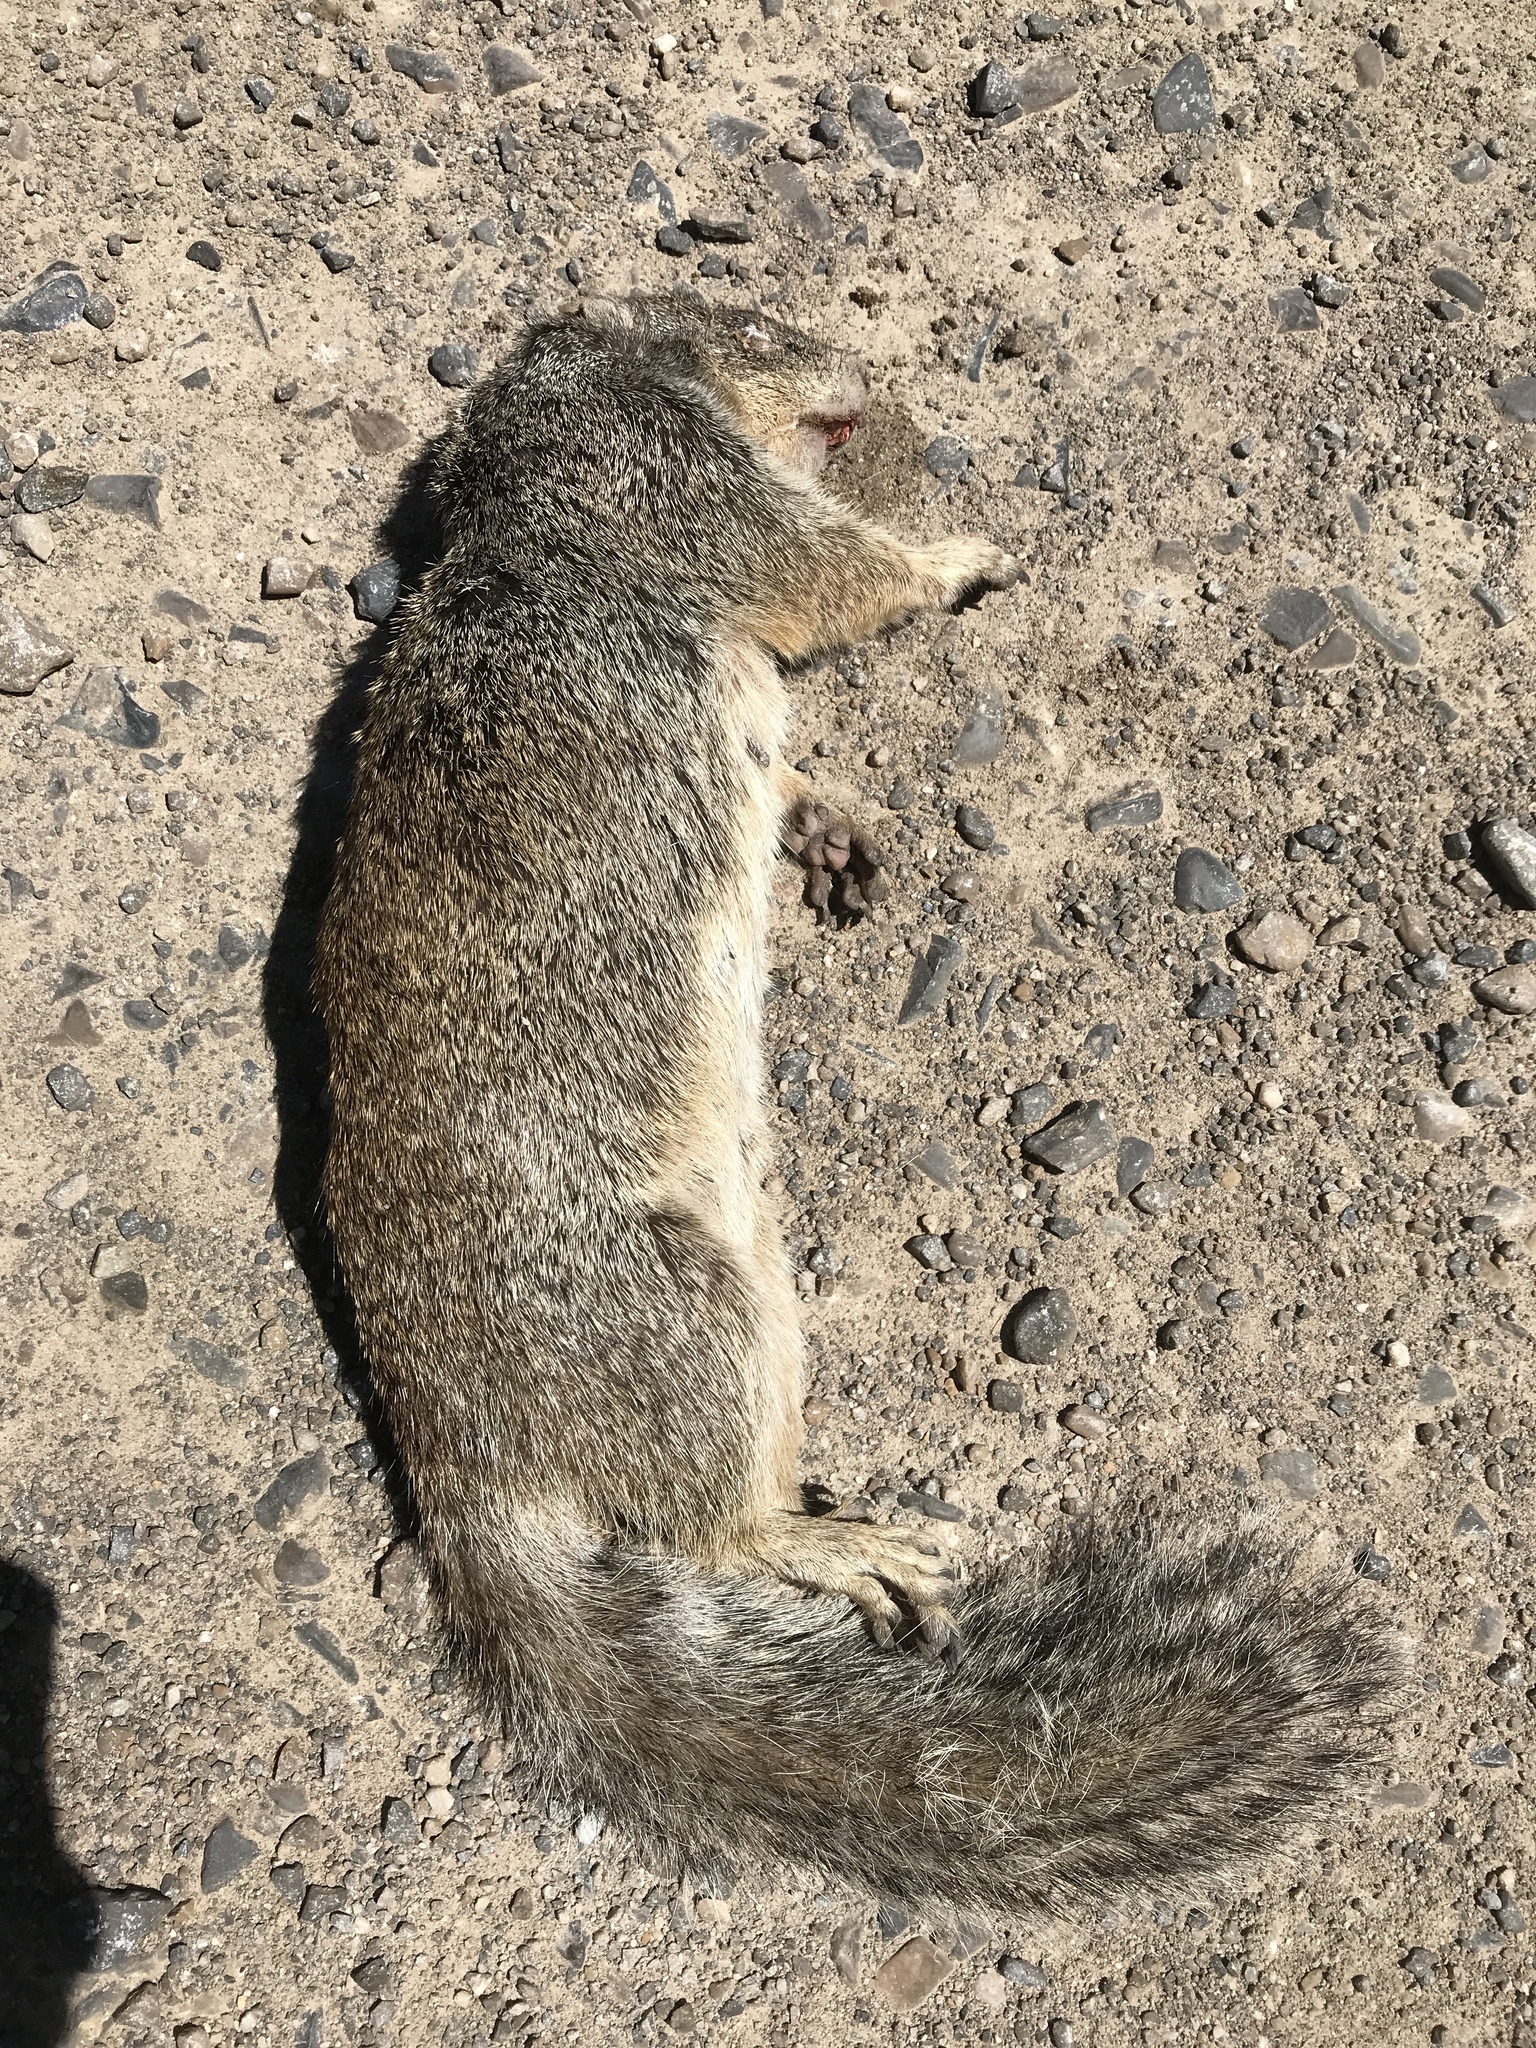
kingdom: Animalia
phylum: Chordata
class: Mammalia
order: Rodentia
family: Sciuridae
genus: Otospermophilus
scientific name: Otospermophilus variegatus
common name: Rock squirrel
